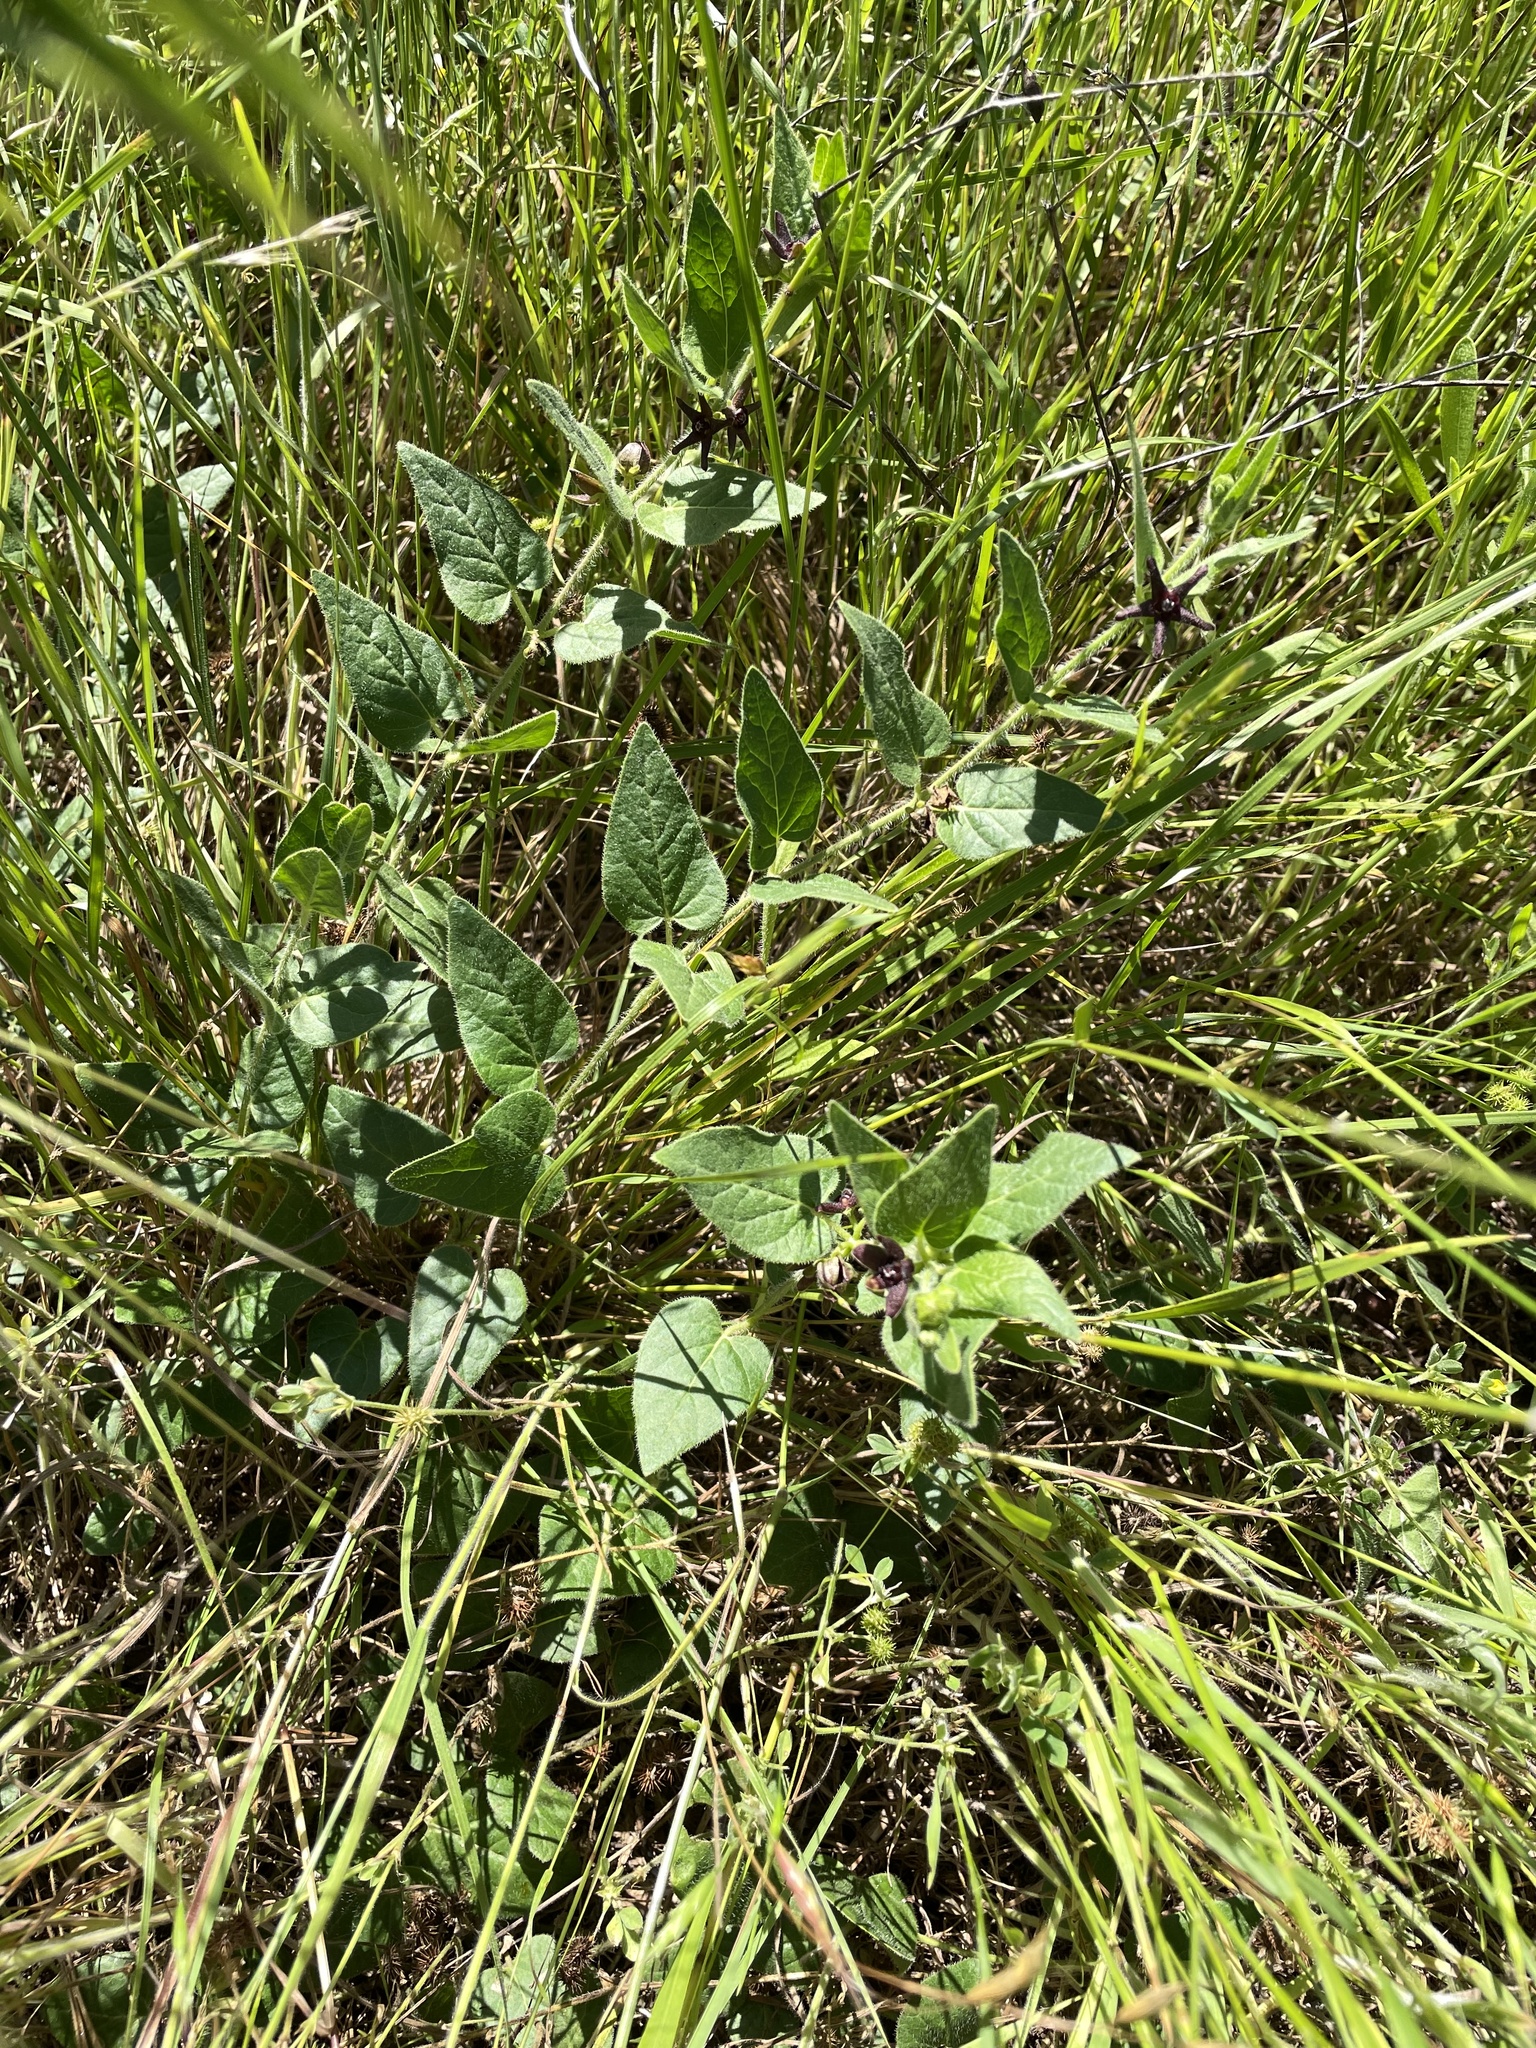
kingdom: Plantae
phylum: Tracheophyta
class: Magnoliopsida
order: Gentianales
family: Apocynaceae
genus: Chthamalia
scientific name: Chthamalia biflora
